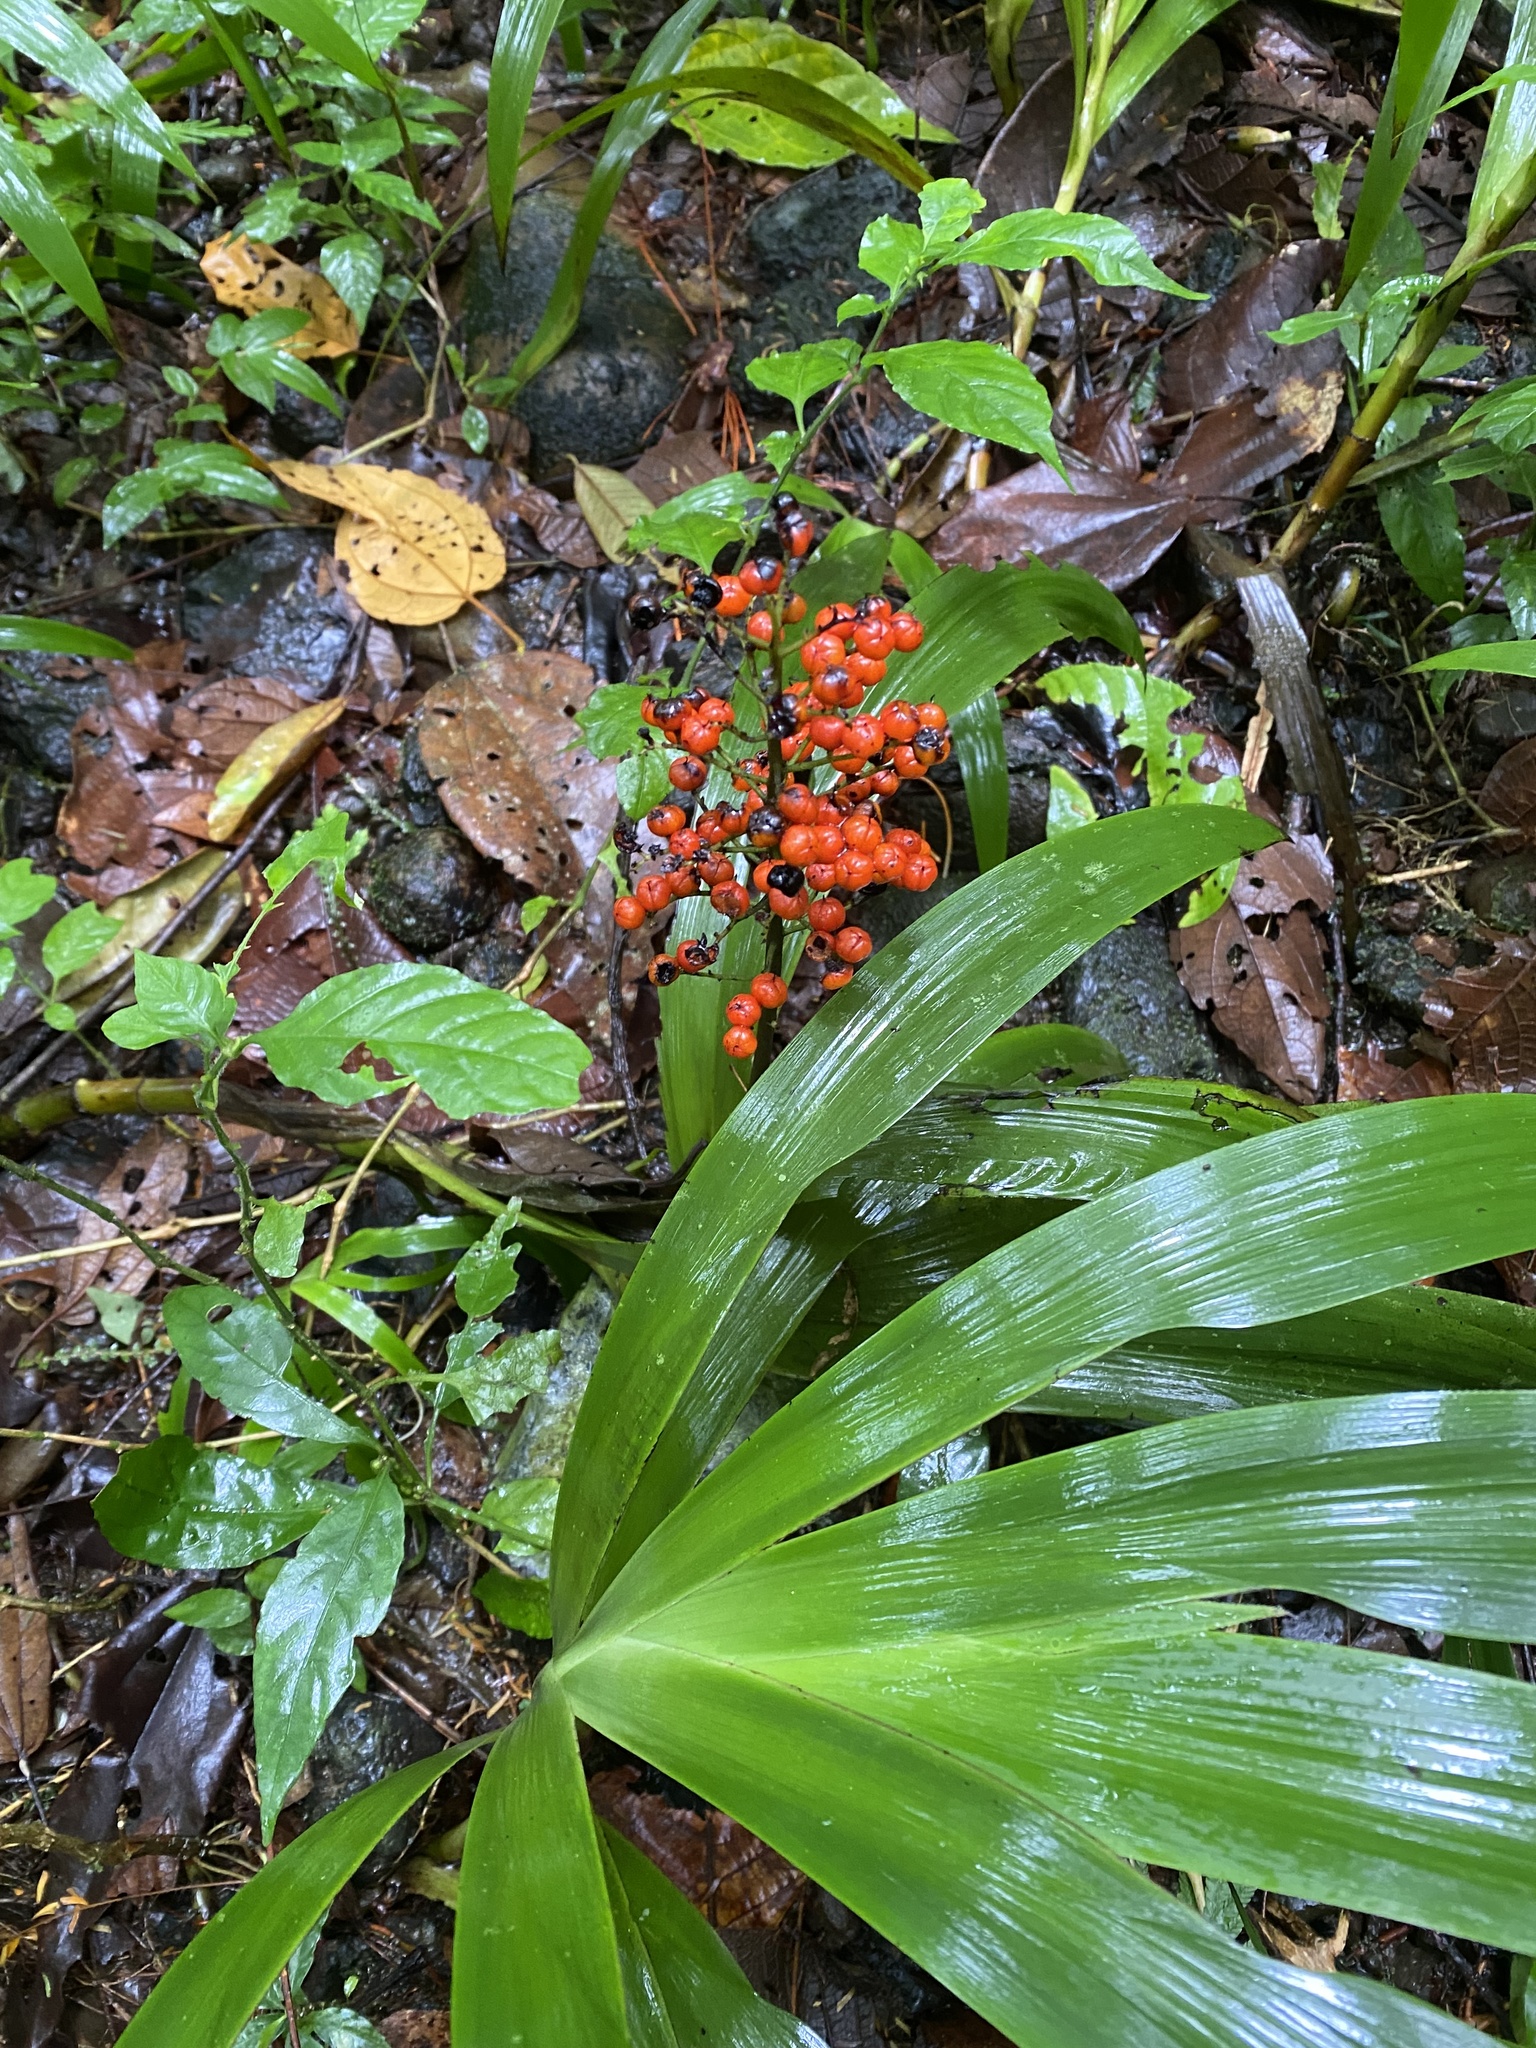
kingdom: Plantae
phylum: Tracheophyta
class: Liliopsida
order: Commelinales
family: Haemodoraceae
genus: Xiphidium
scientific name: Xiphidium caeruleum
